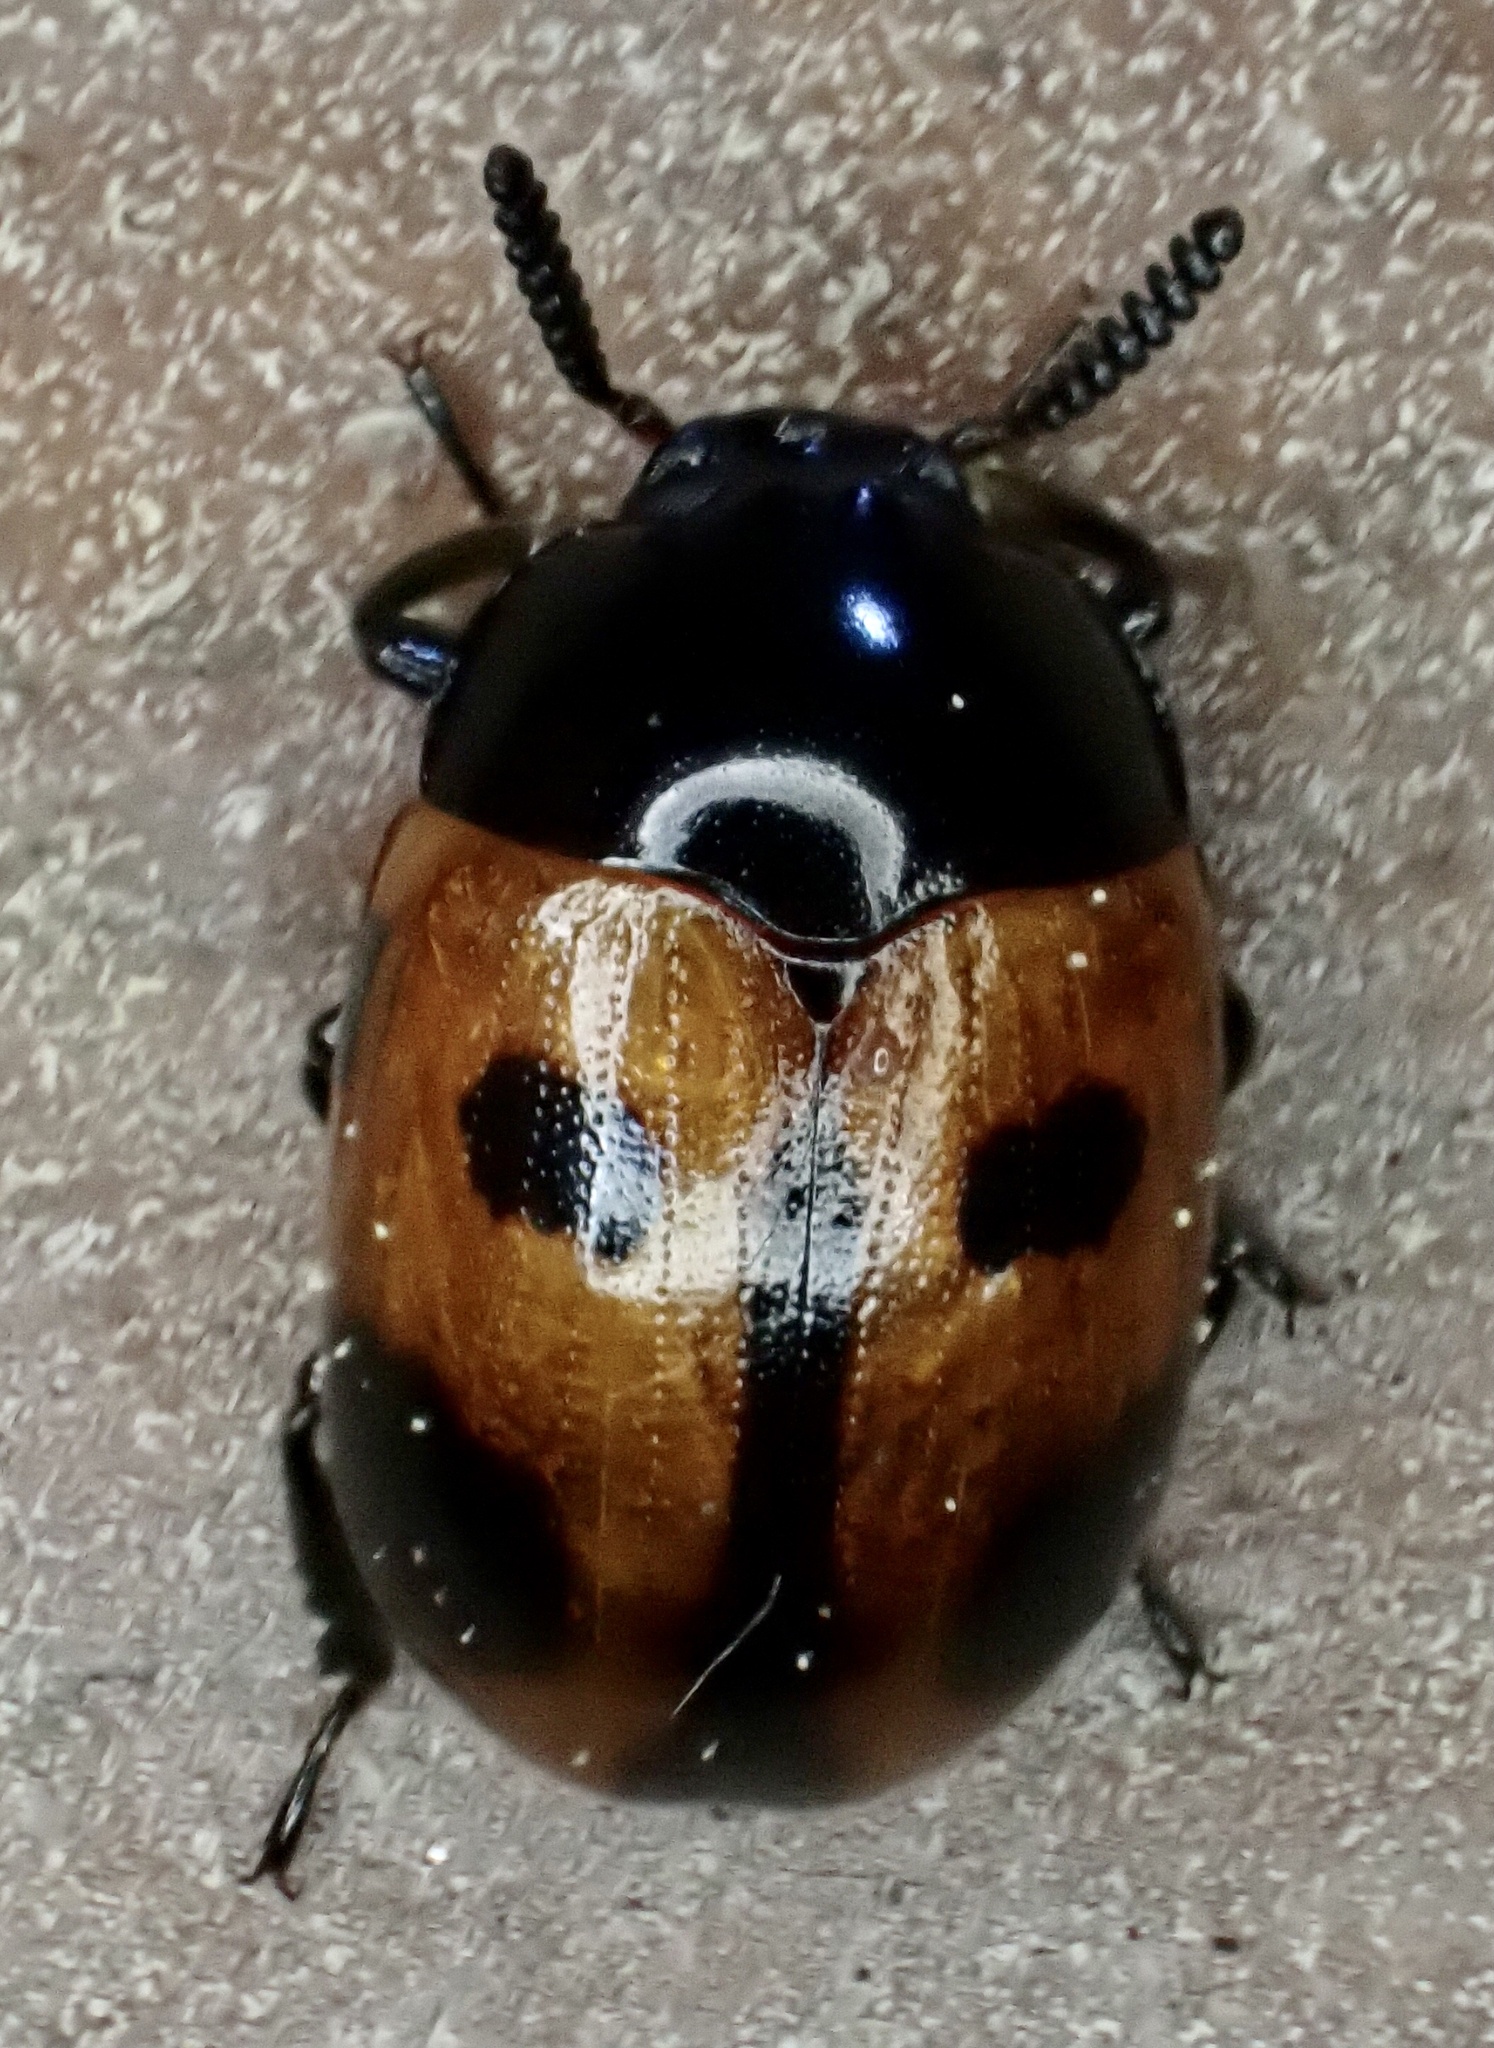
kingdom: Animalia
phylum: Arthropoda
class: Insecta
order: Coleoptera
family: Tenebrionidae
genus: Diaperis
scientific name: Diaperis maculata
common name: Darkling beetle
